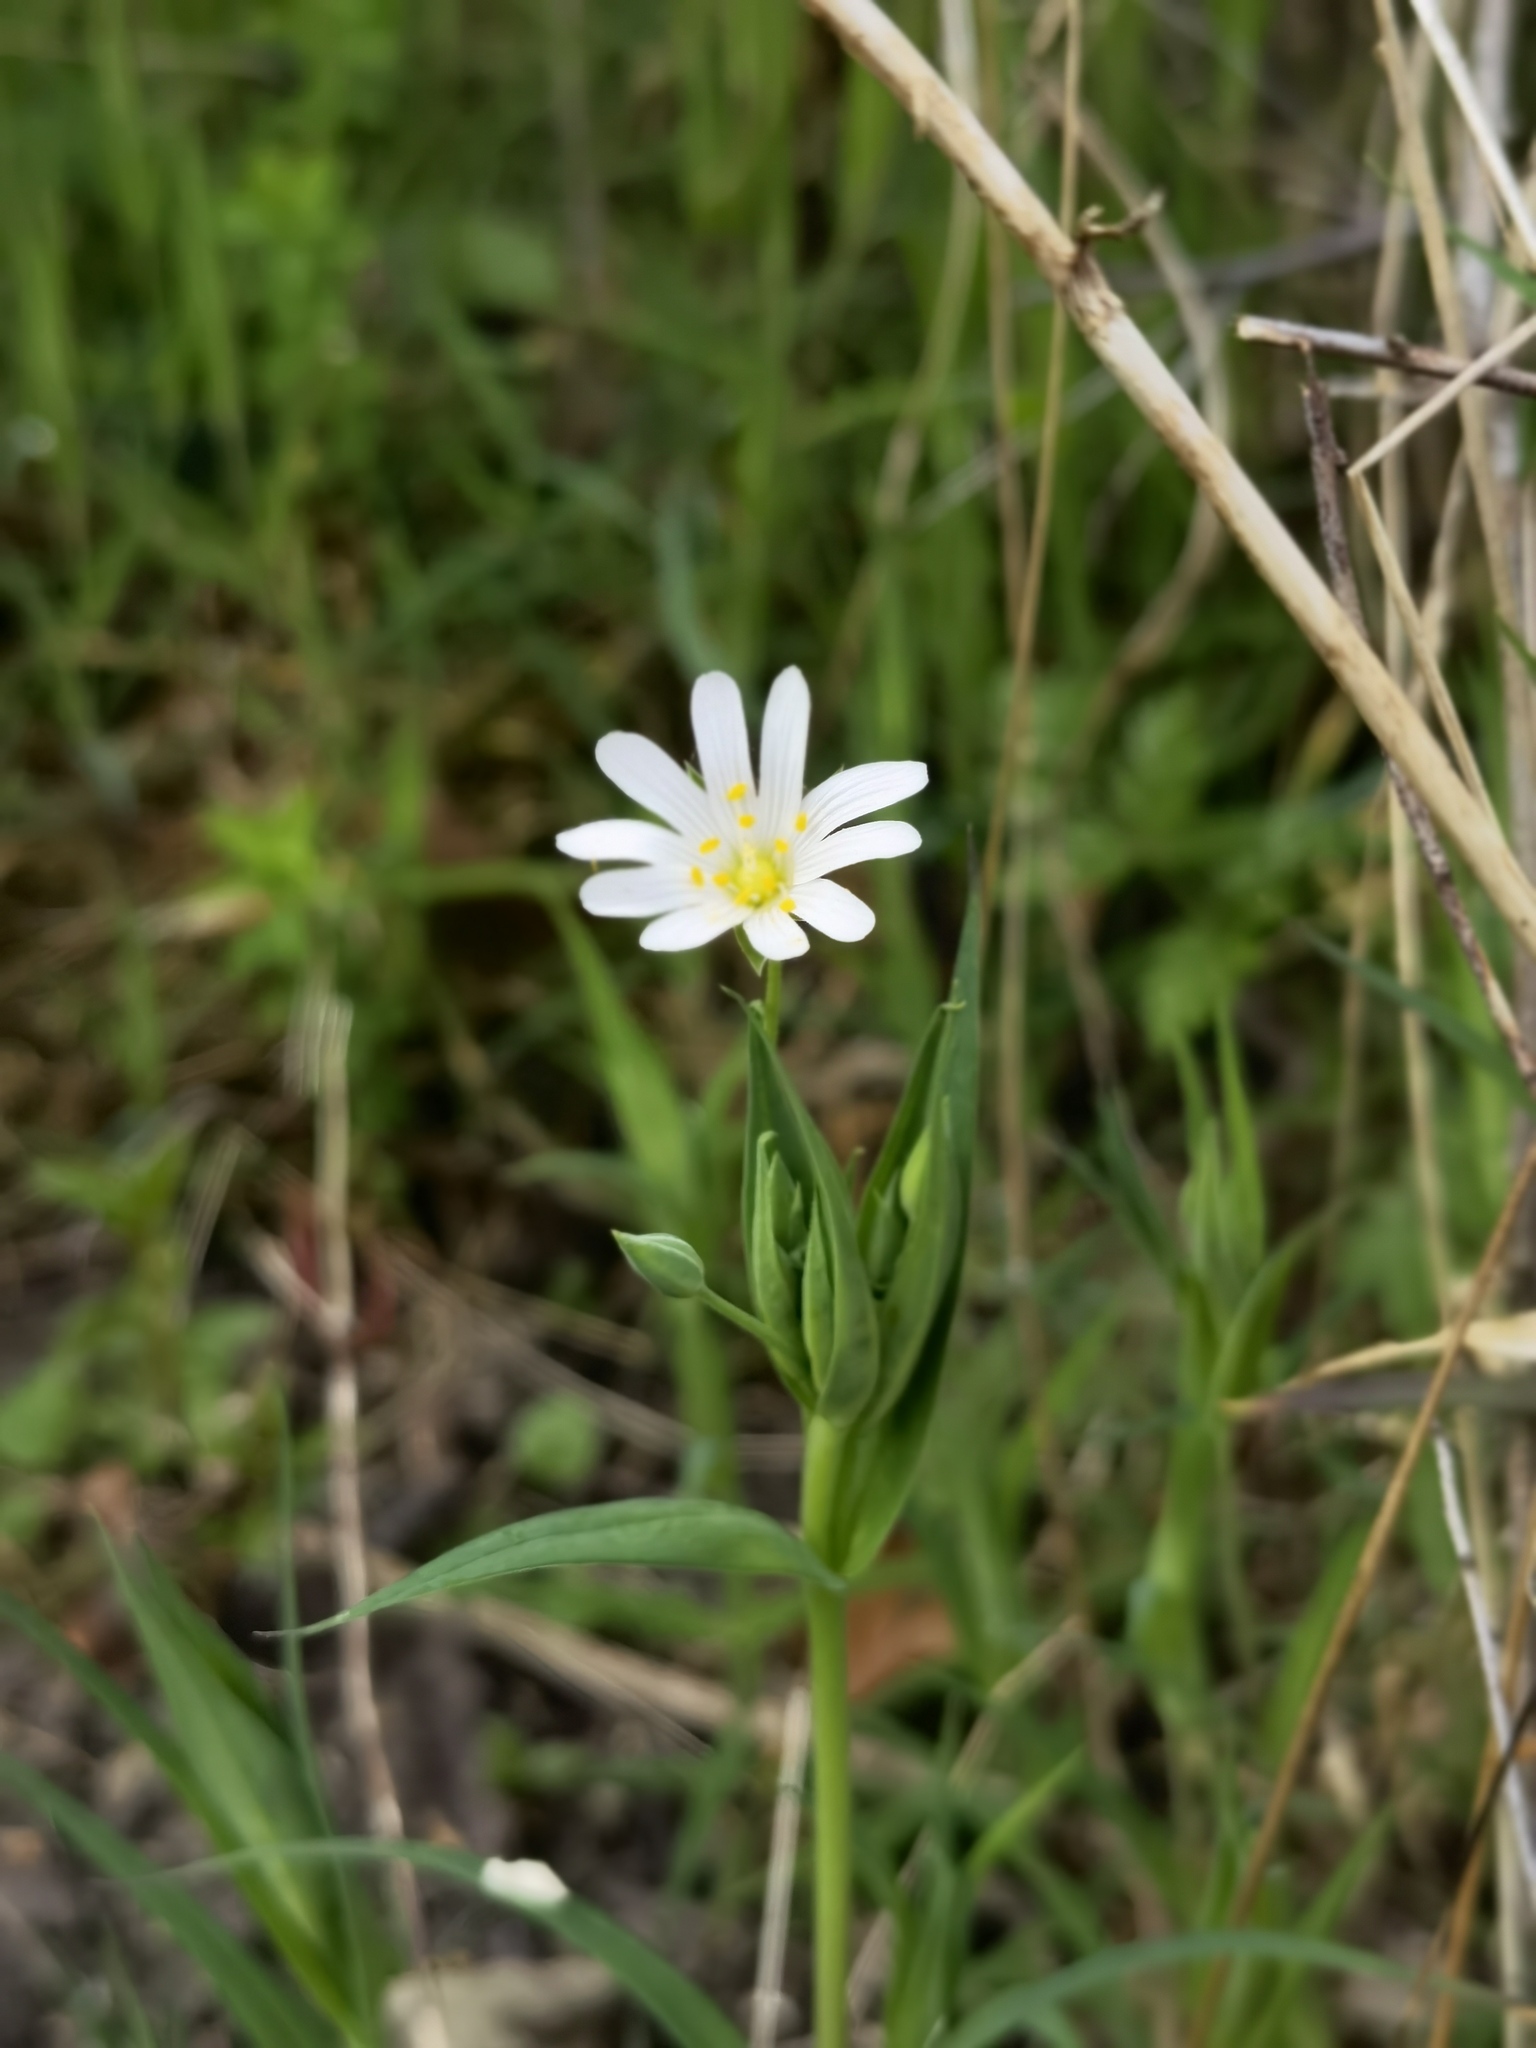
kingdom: Plantae
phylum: Tracheophyta
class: Magnoliopsida
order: Caryophyllales
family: Caryophyllaceae
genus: Rabelera
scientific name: Rabelera holostea
